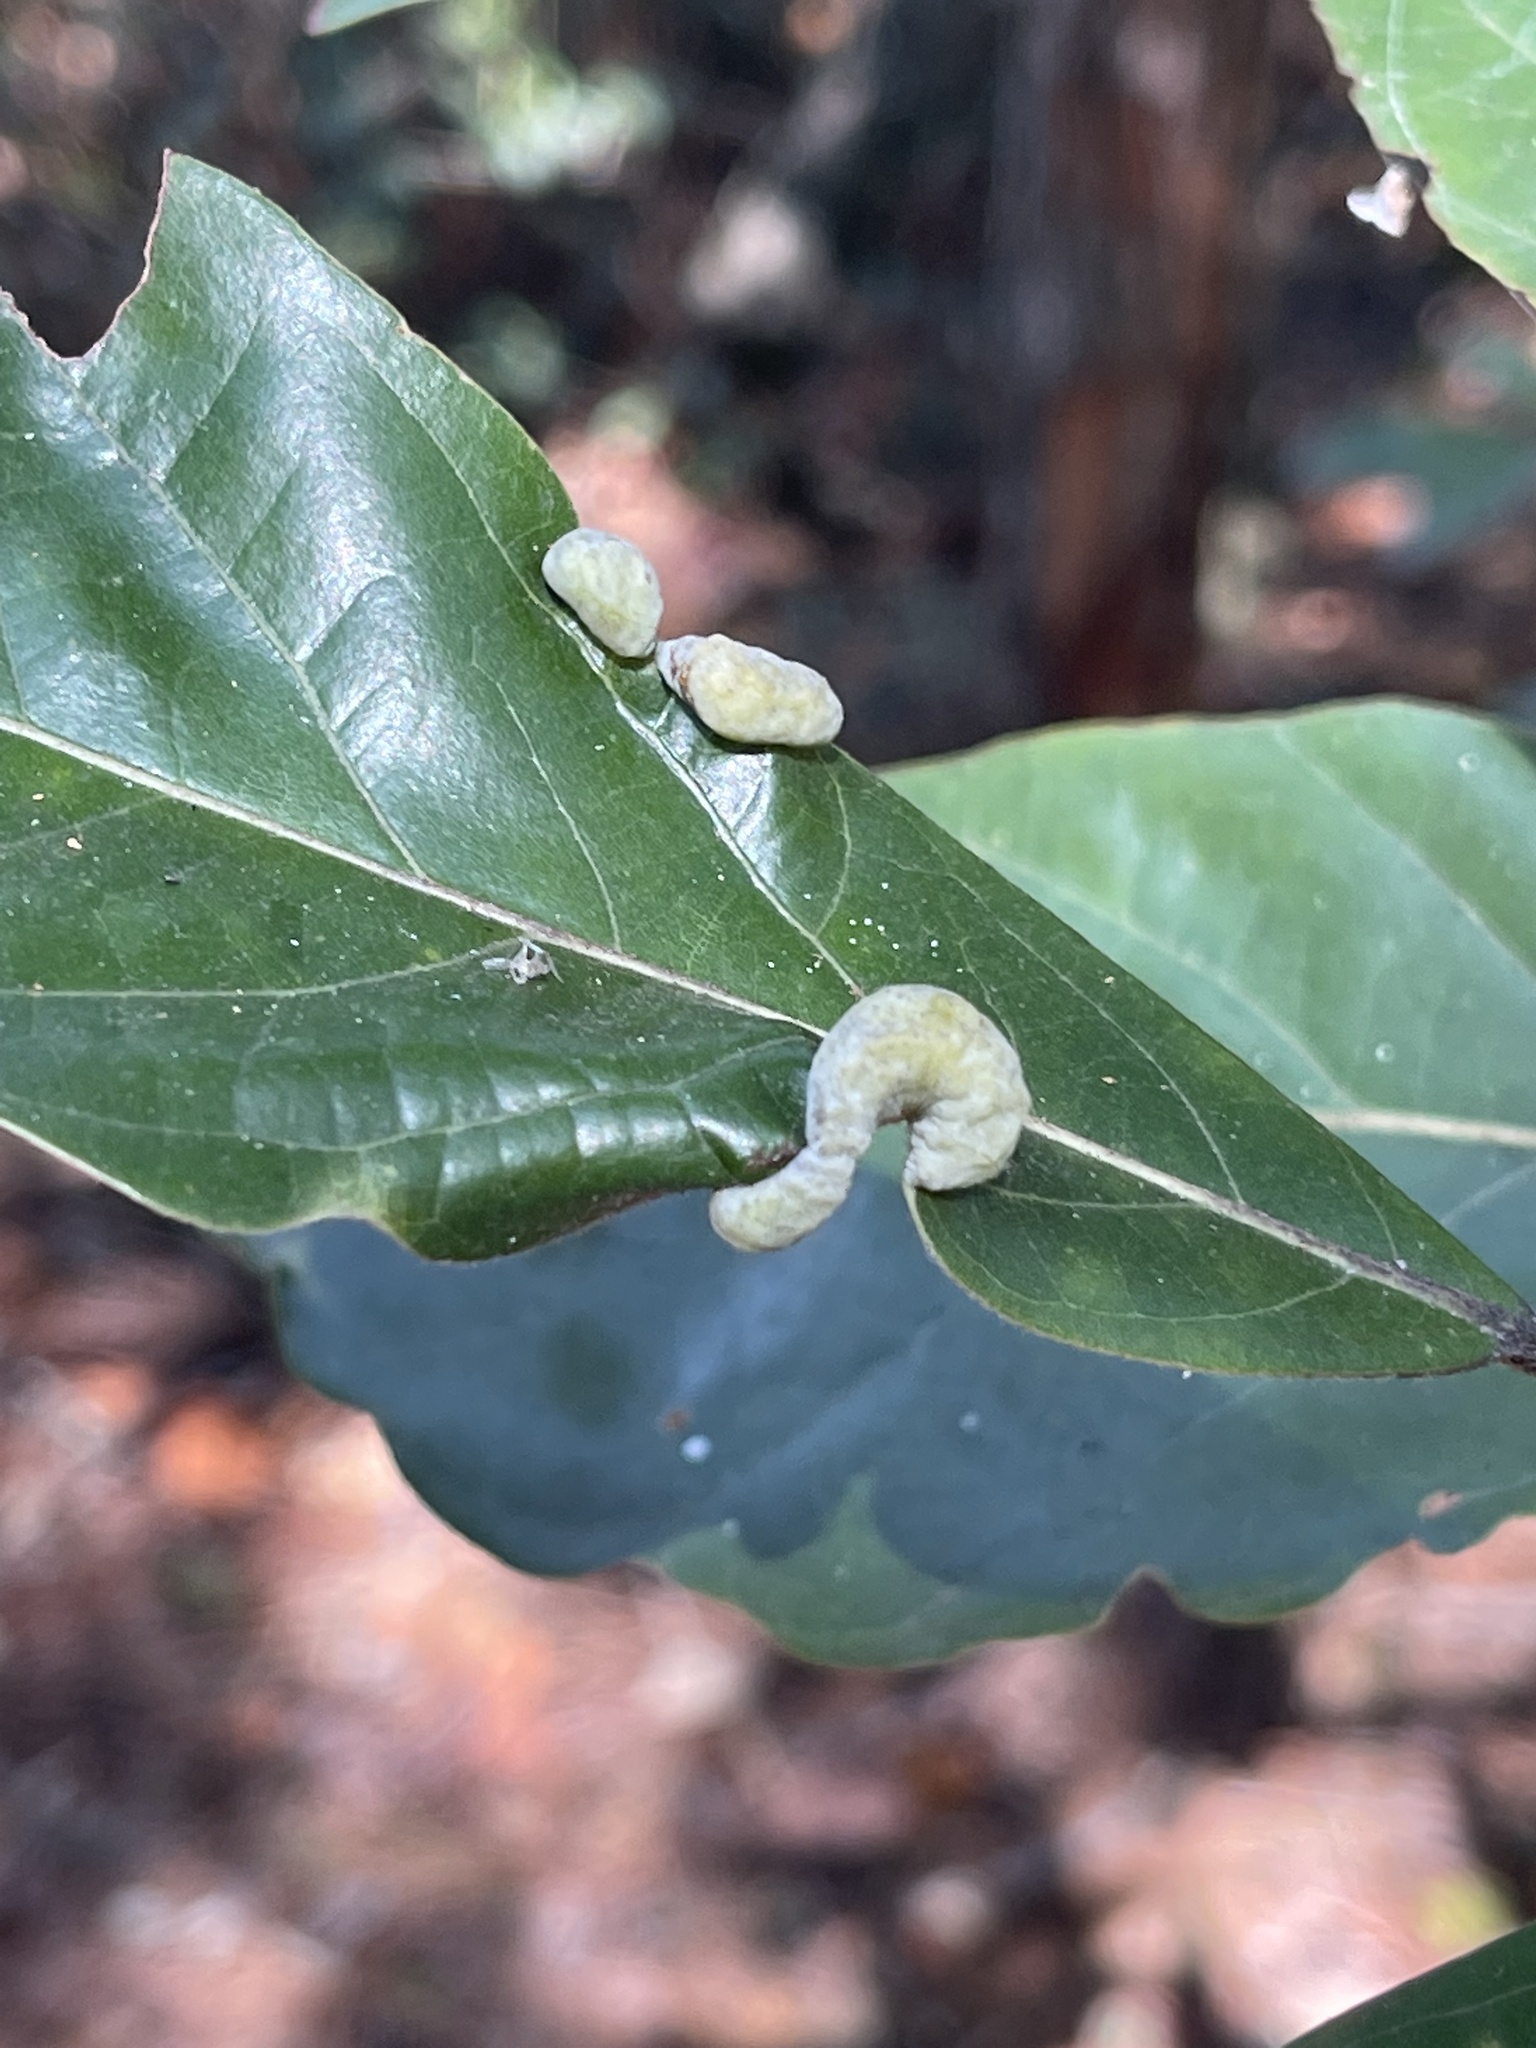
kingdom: Animalia
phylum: Arthropoda
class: Insecta
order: Hemiptera
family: Triozidae
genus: Trioza
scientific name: Trioza magnoliae
